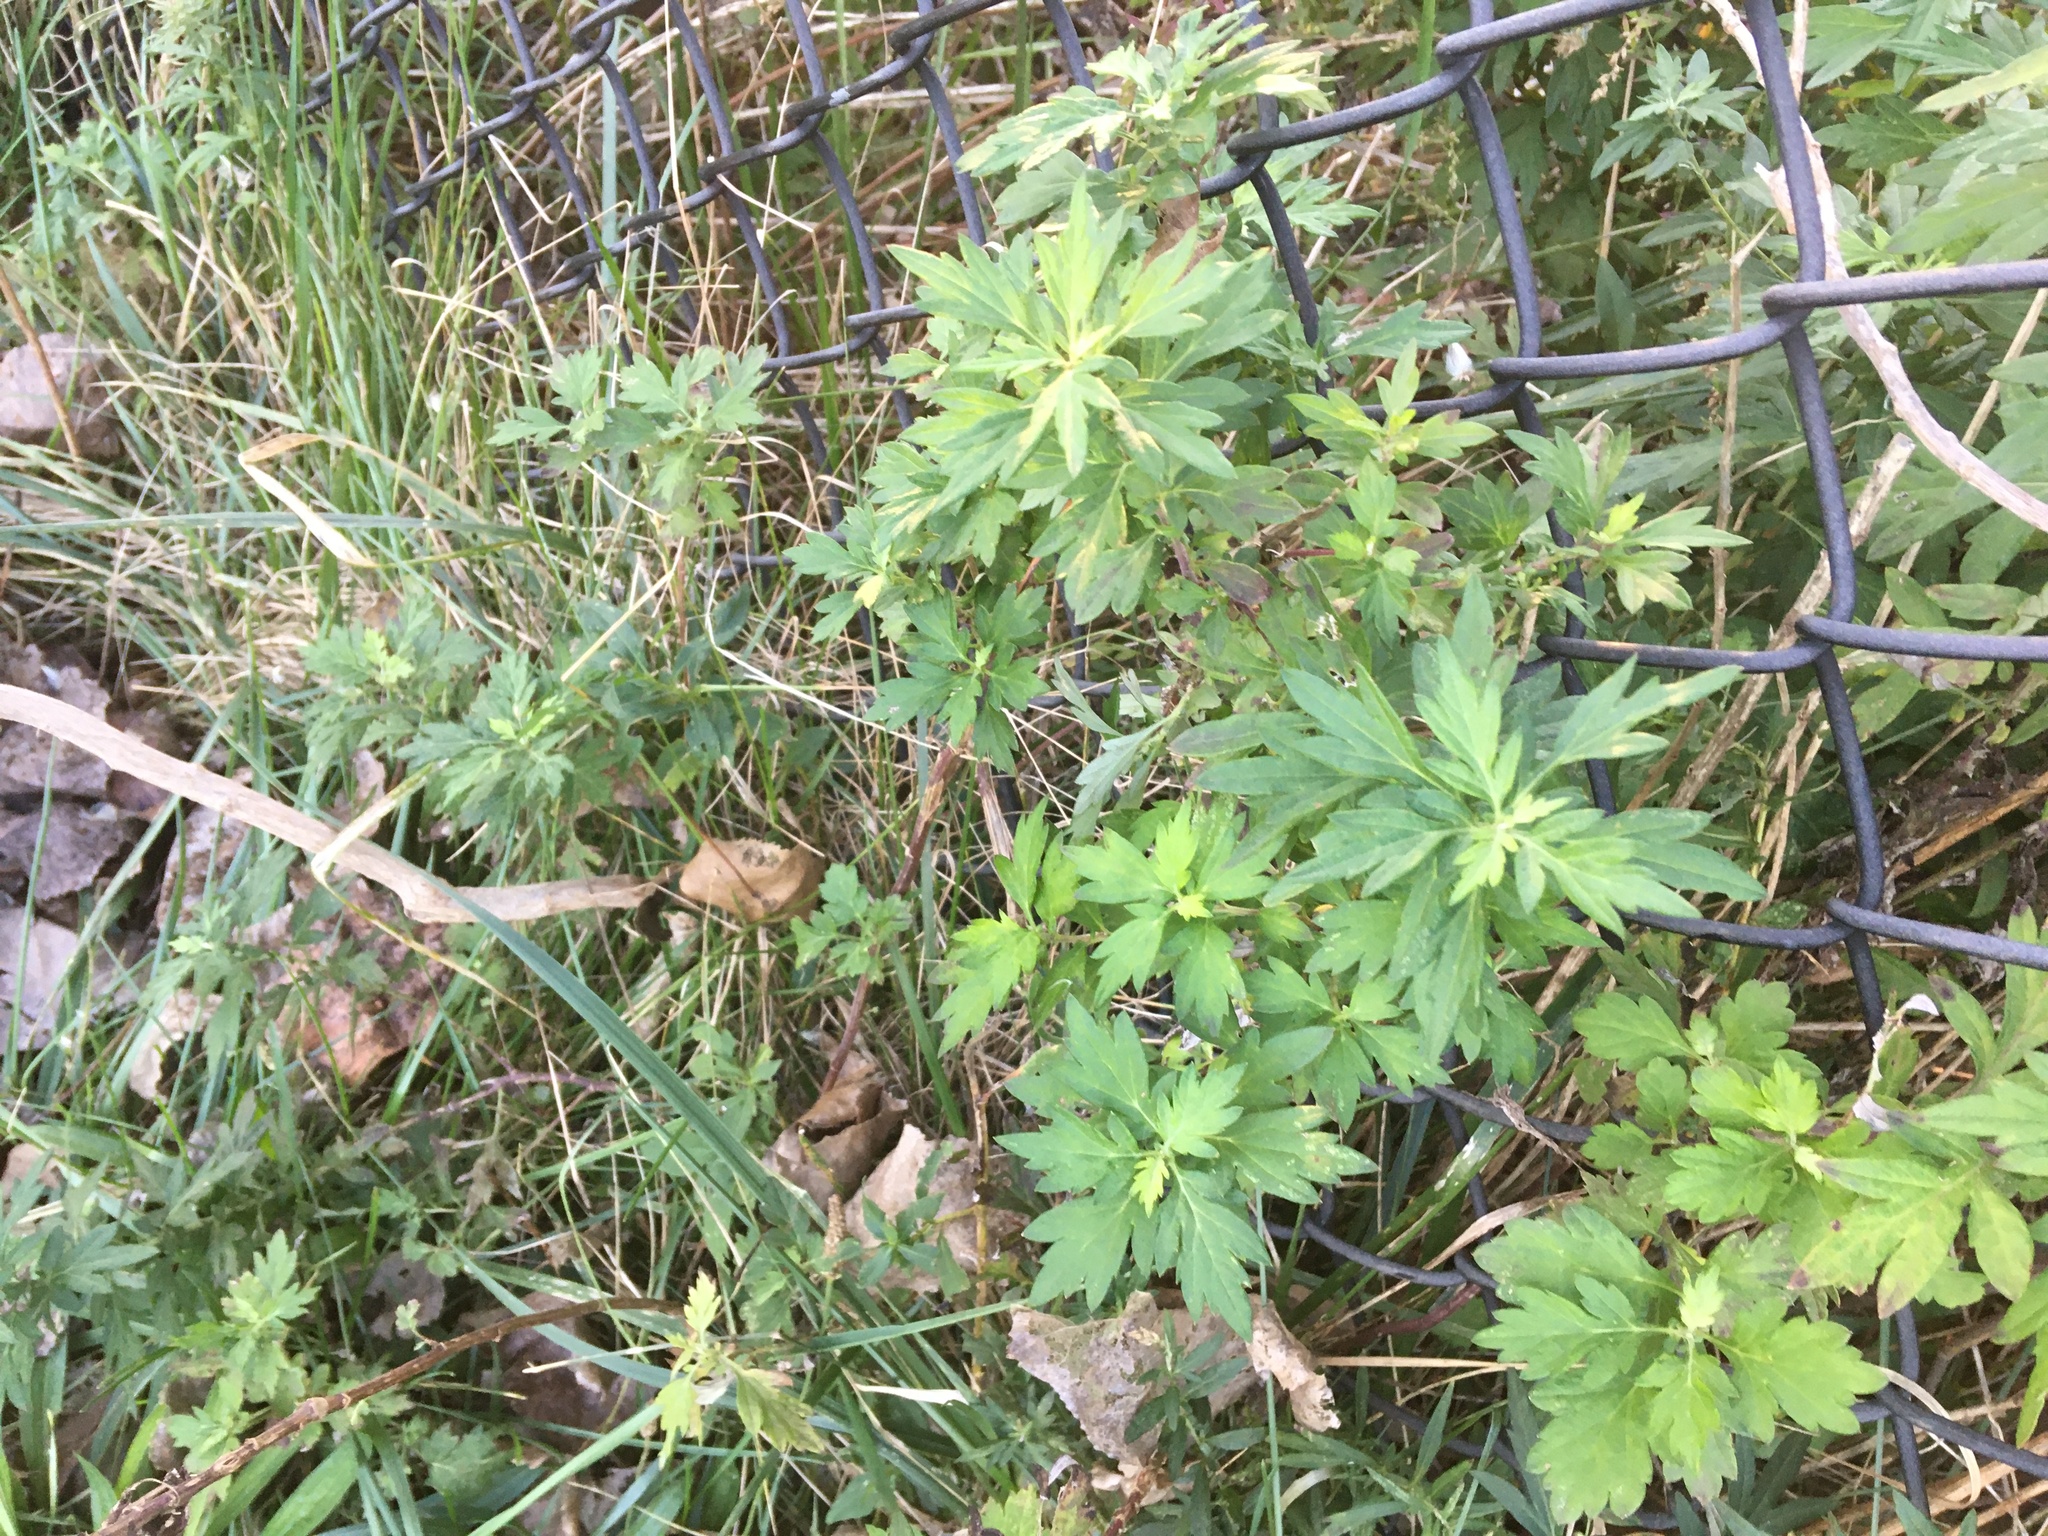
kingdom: Plantae
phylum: Tracheophyta
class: Magnoliopsida
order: Asterales
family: Asteraceae
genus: Artemisia
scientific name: Artemisia vulgaris
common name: Mugwort
